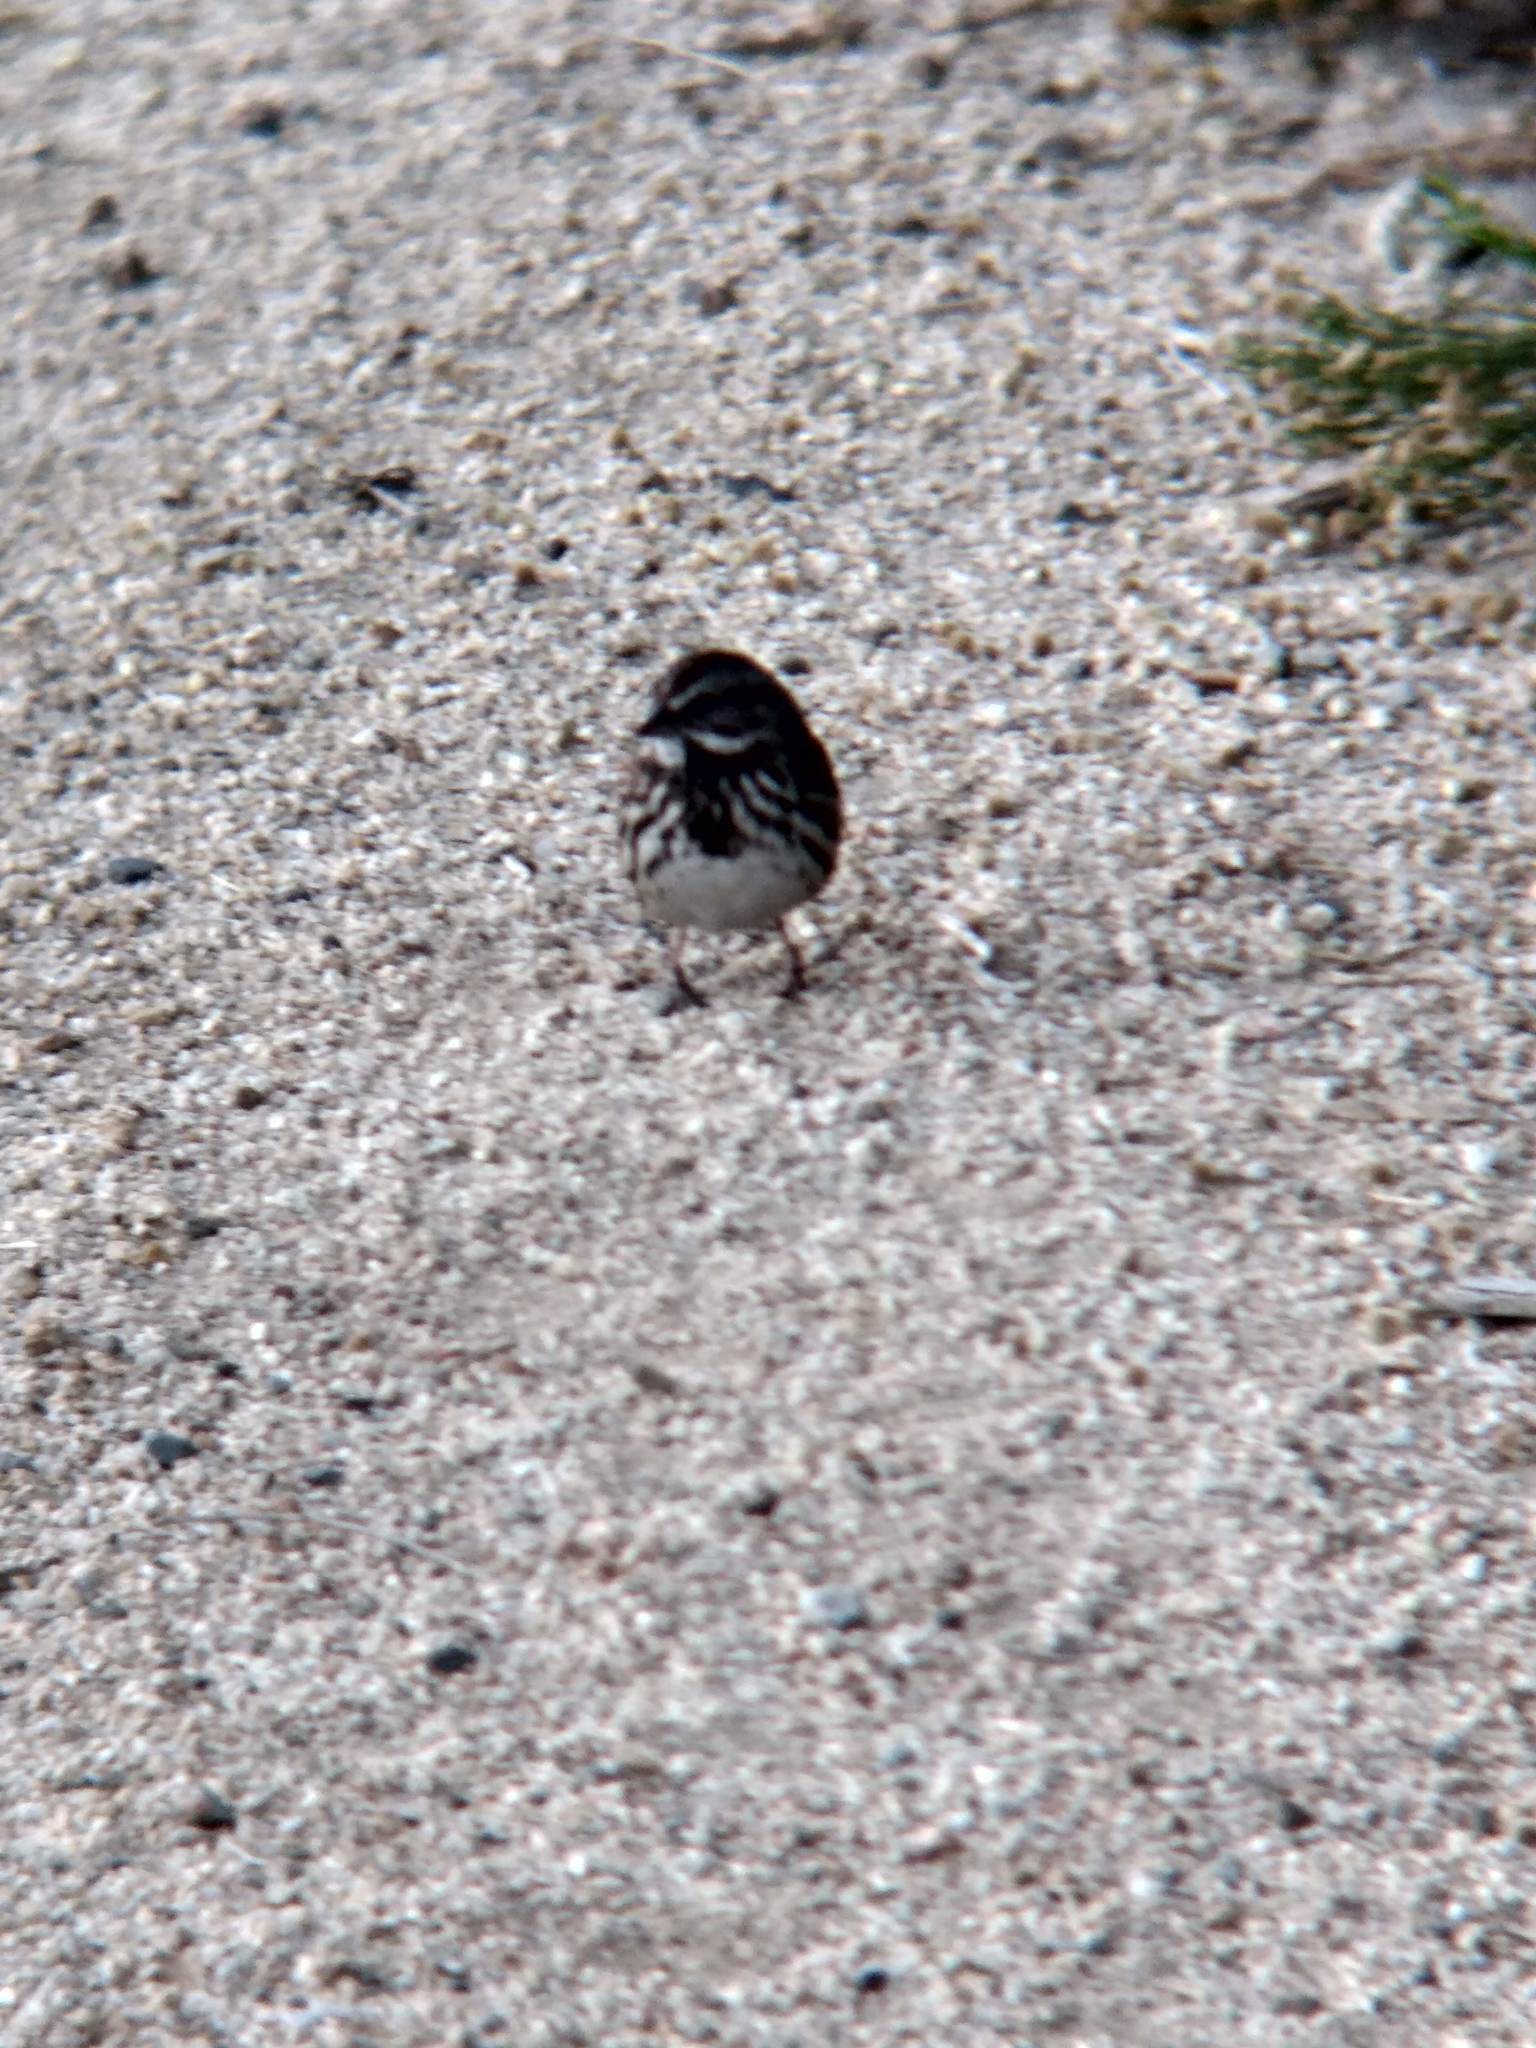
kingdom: Animalia
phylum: Chordata
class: Aves
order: Passeriformes
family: Passerellidae
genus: Melospiza
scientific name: Melospiza melodia
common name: Song sparrow
